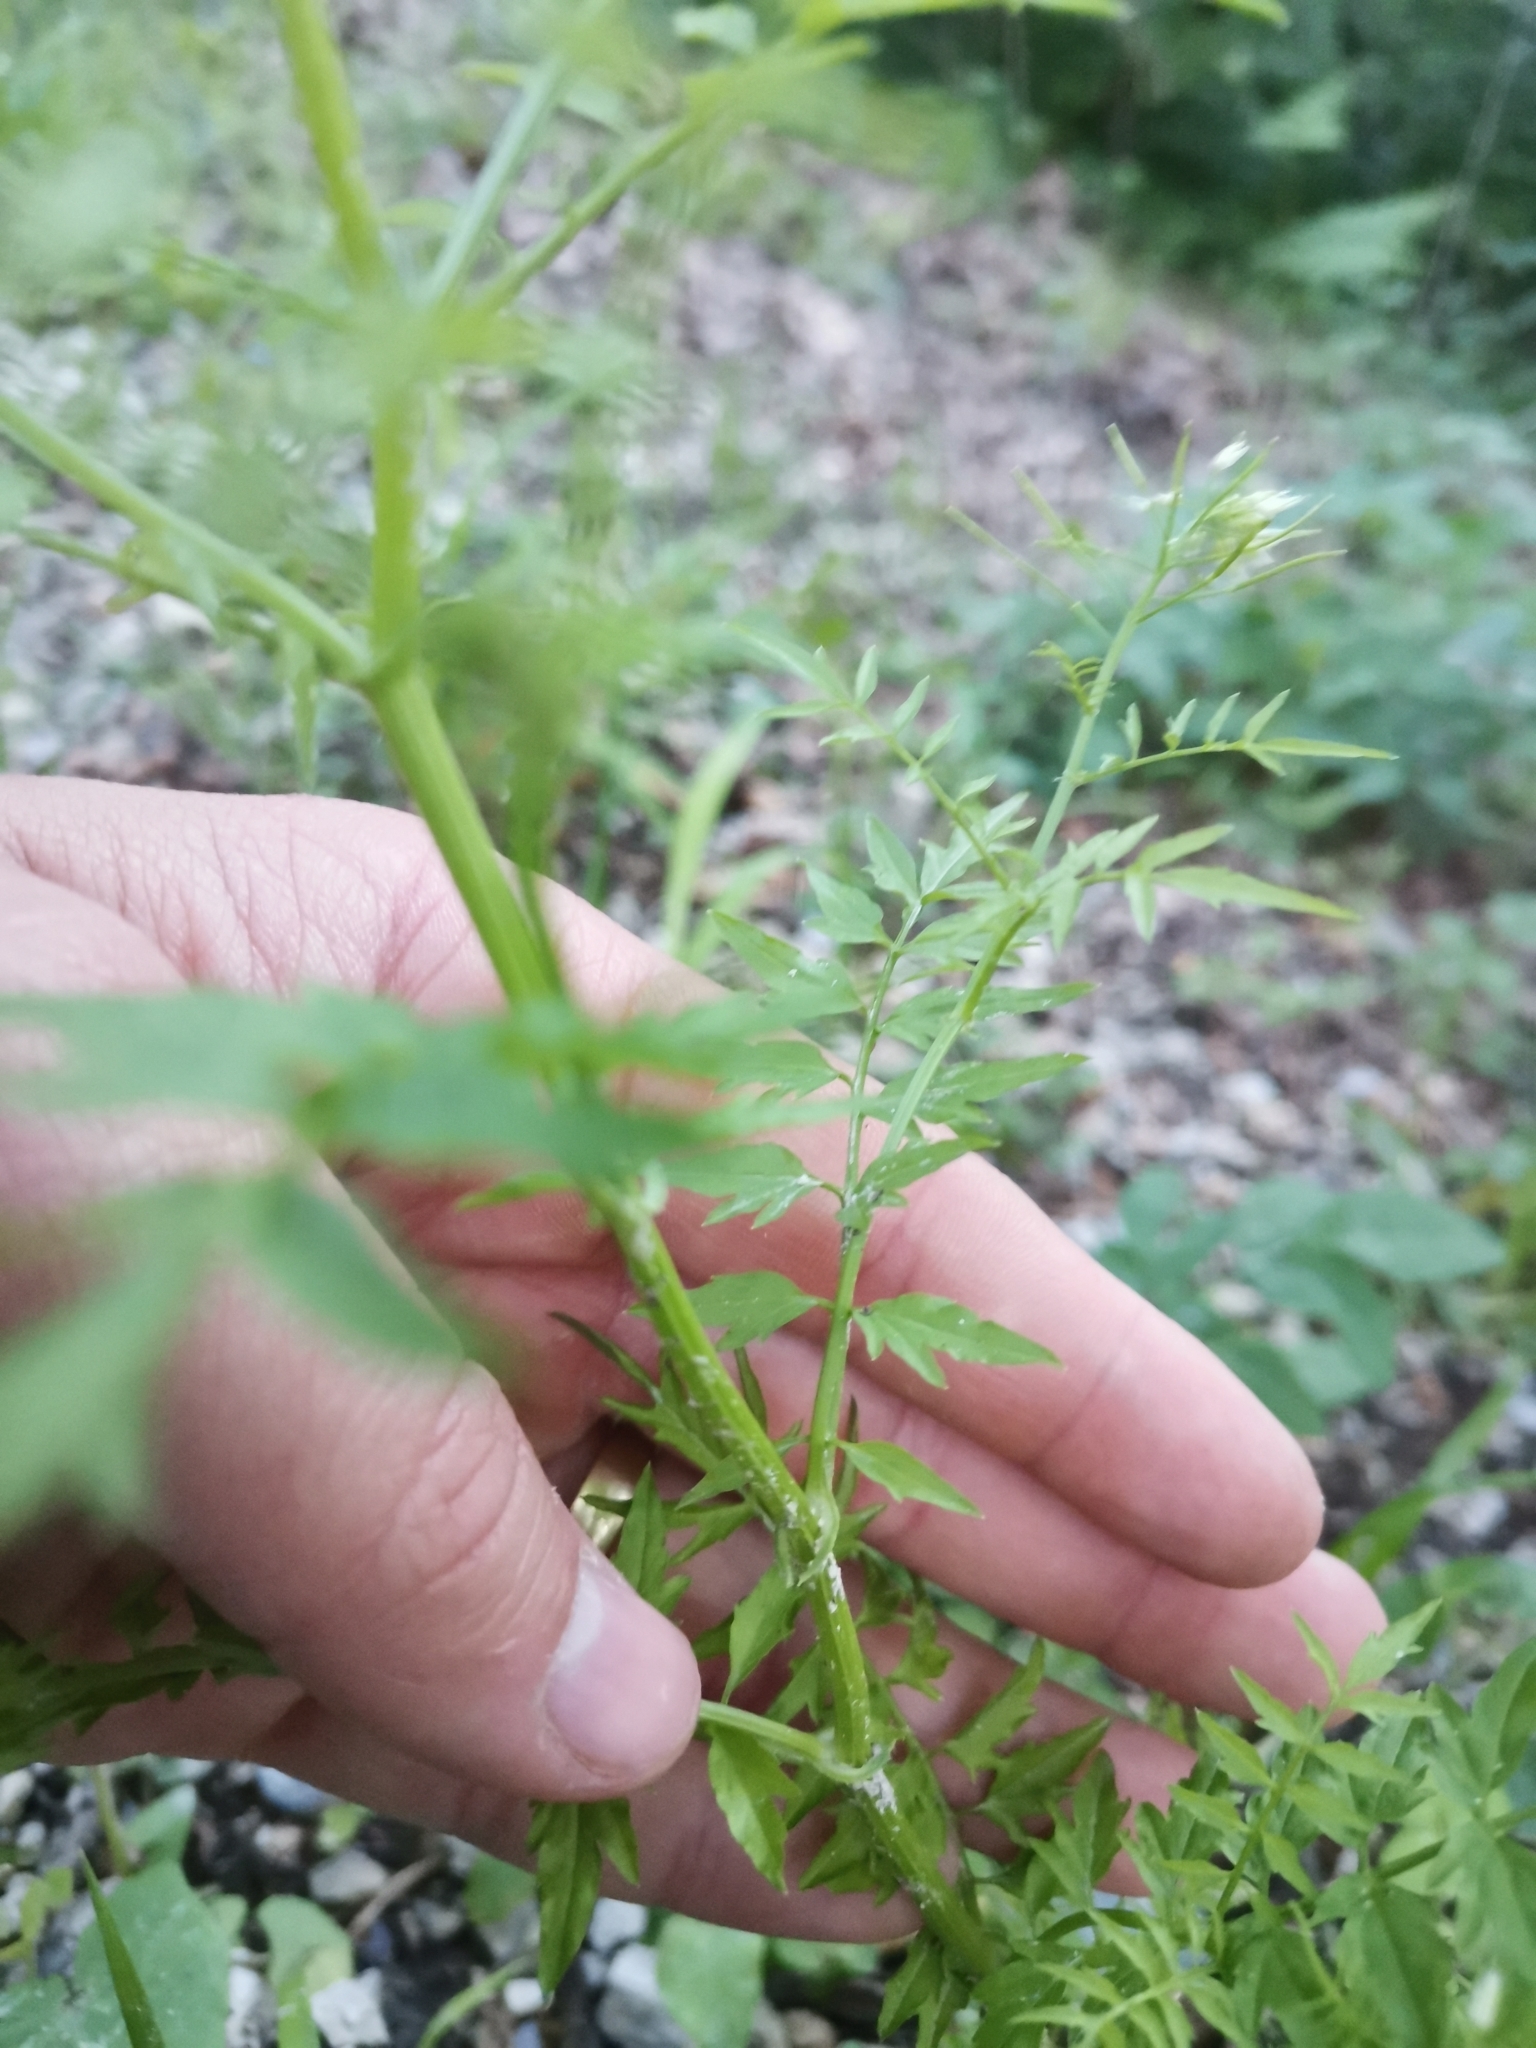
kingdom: Plantae
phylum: Tracheophyta
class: Magnoliopsida
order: Brassicales
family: Brassicaceae
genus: Cardamine
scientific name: Cardamine impatiens
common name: Narrow-leaved bitter-cress
